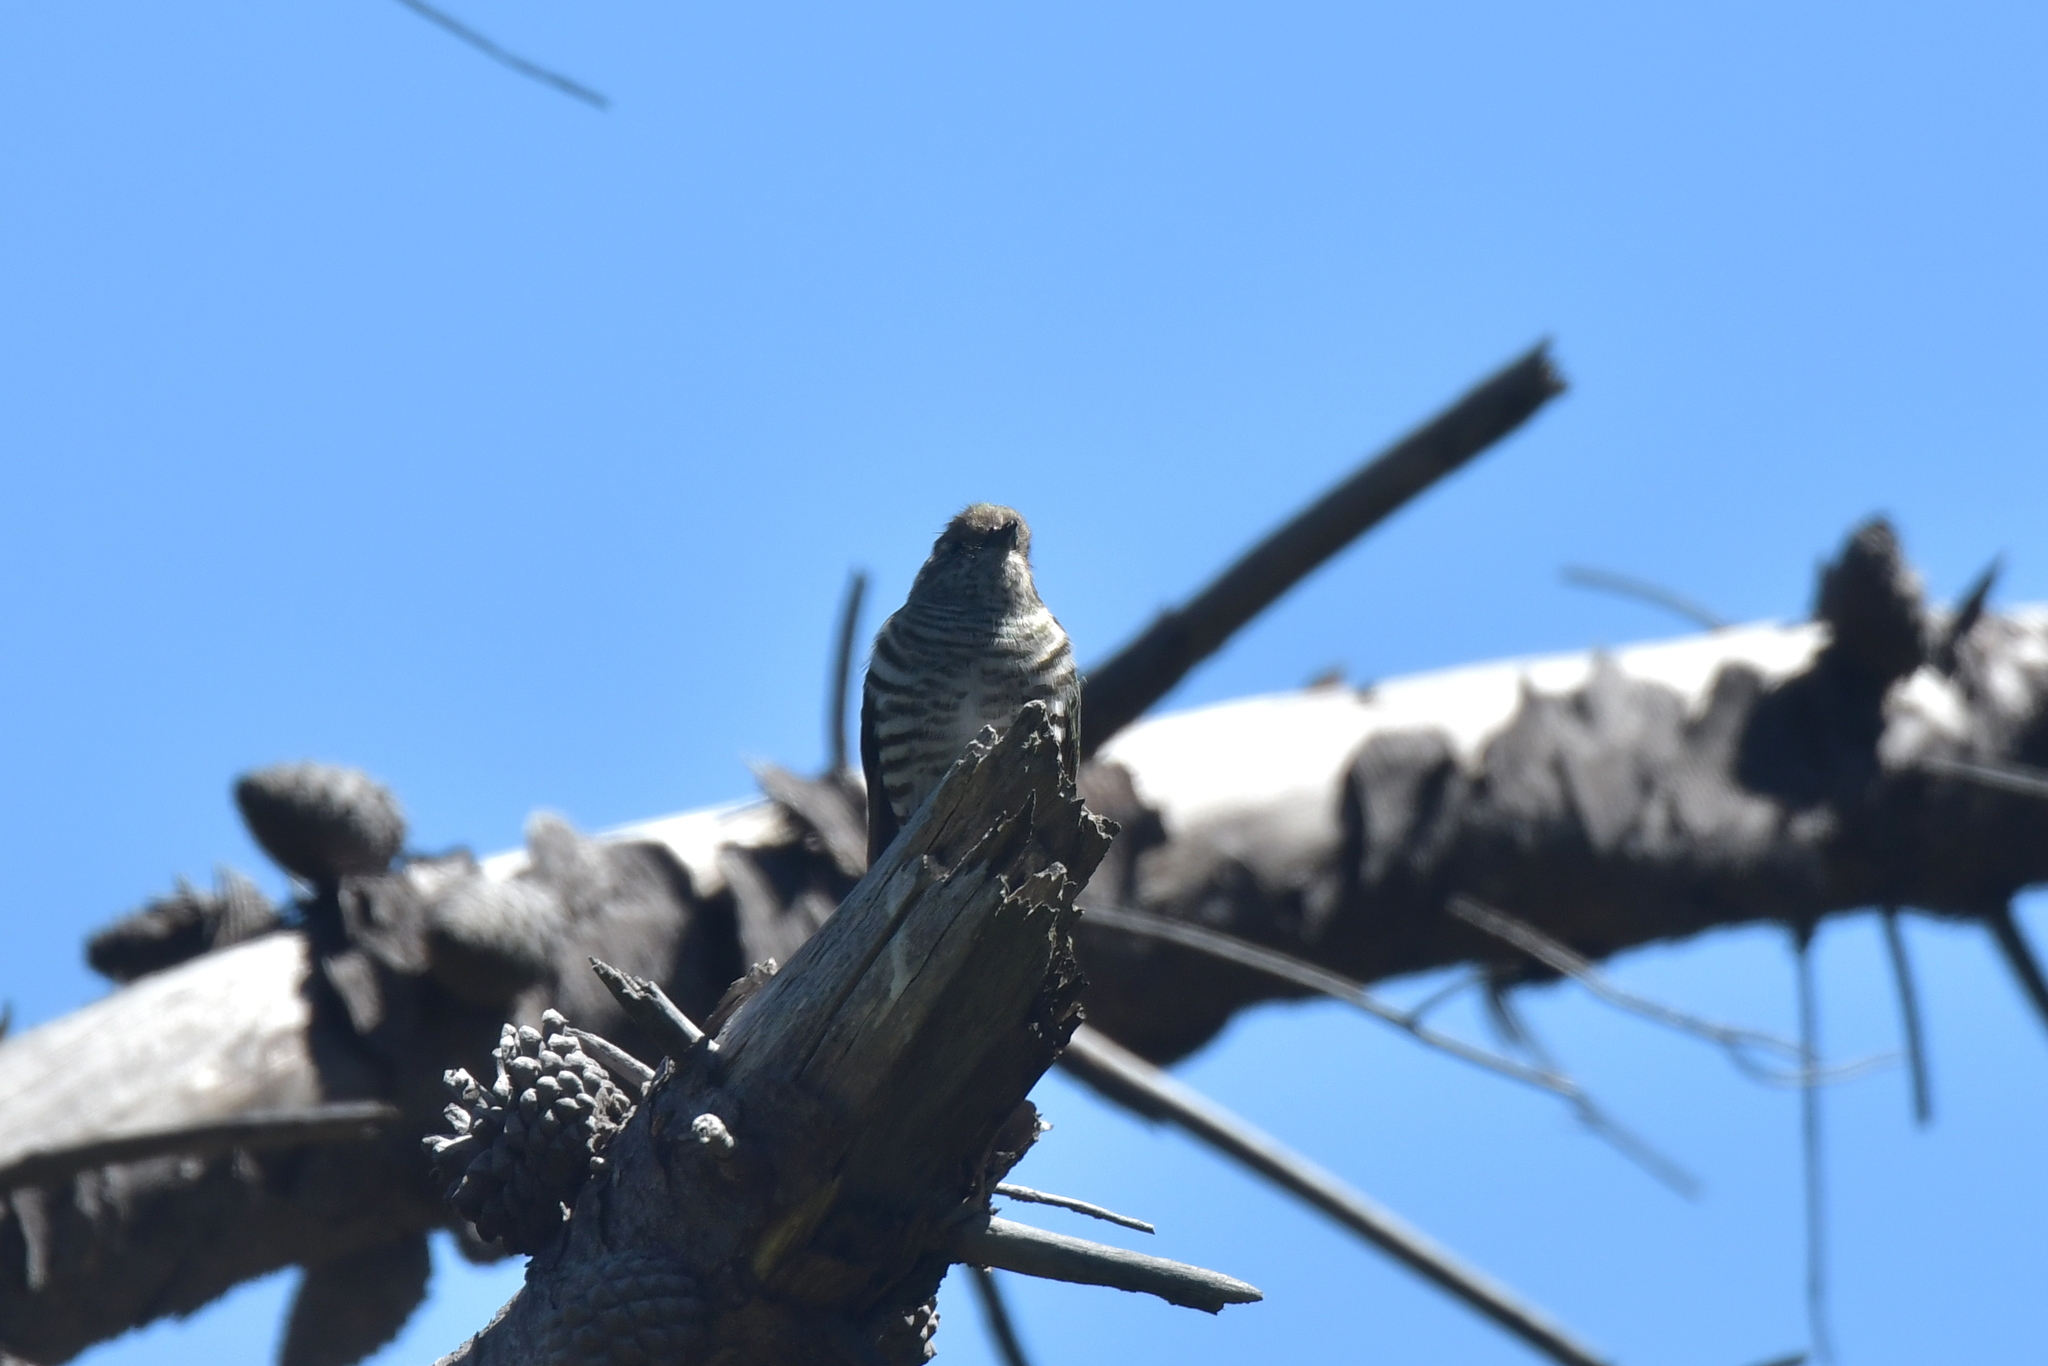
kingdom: Animalia
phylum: Chordata
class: Aves
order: Cuculiformes
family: Cuculidae
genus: Chrysococcyx
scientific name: Chrysococcyx lucidus
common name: Shining bronze cuckoo
